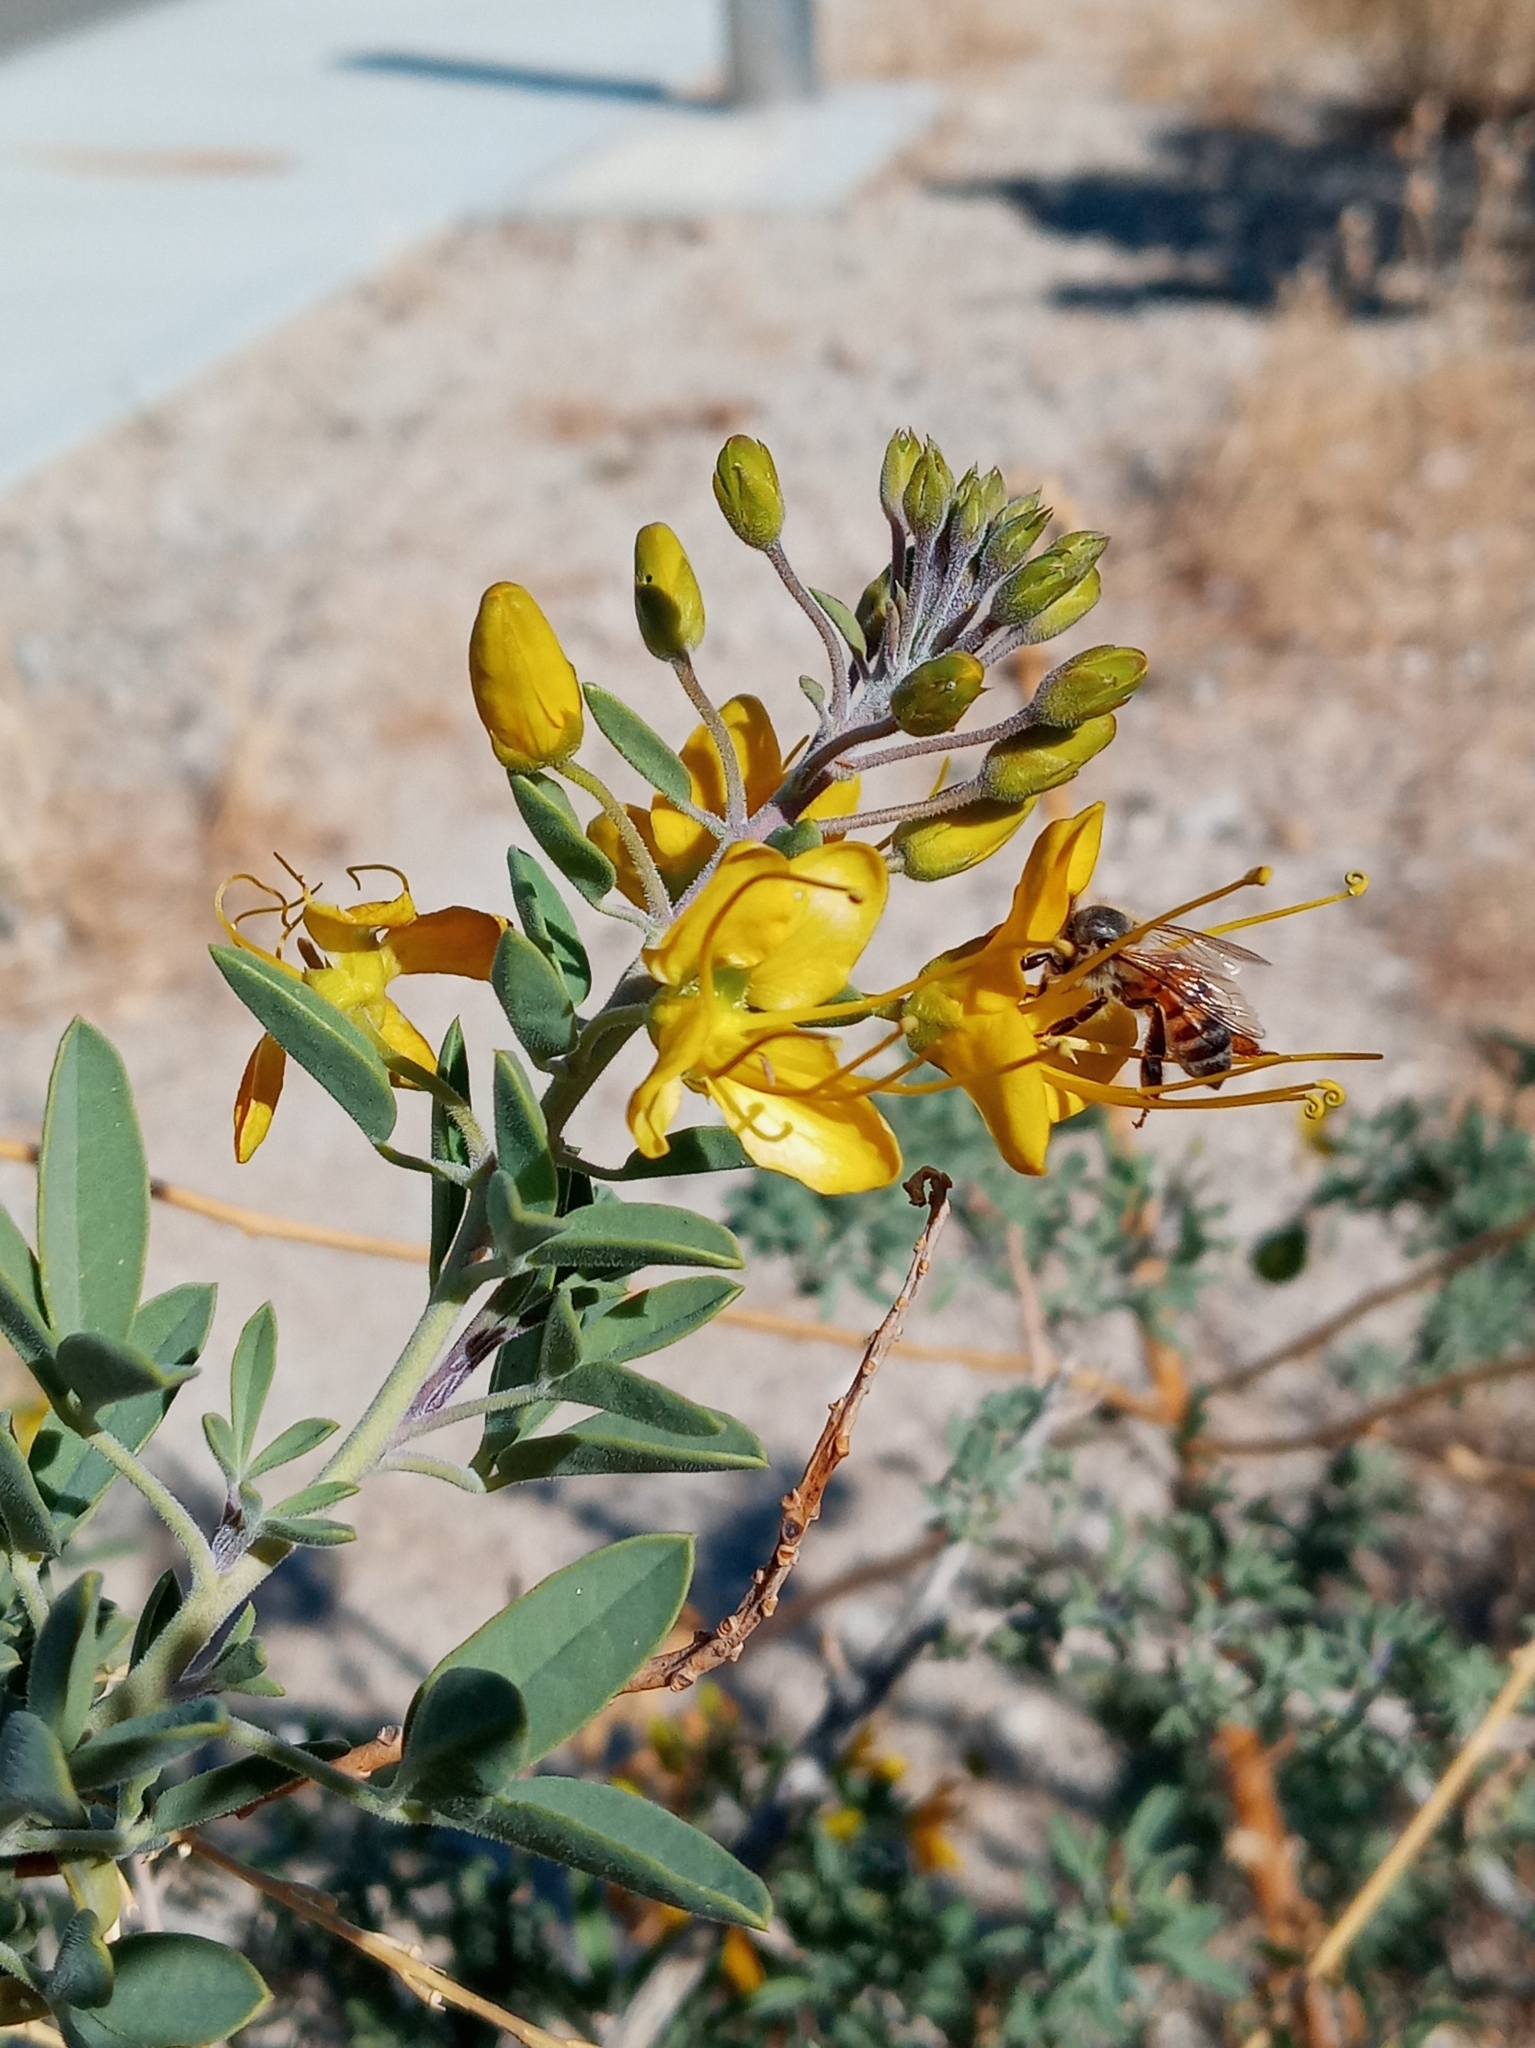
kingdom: Plantae
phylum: Tracheophyta
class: Magnoliopsida
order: Brassicales
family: Cleomaceae
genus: Cleomella
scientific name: Cleomella arborea
